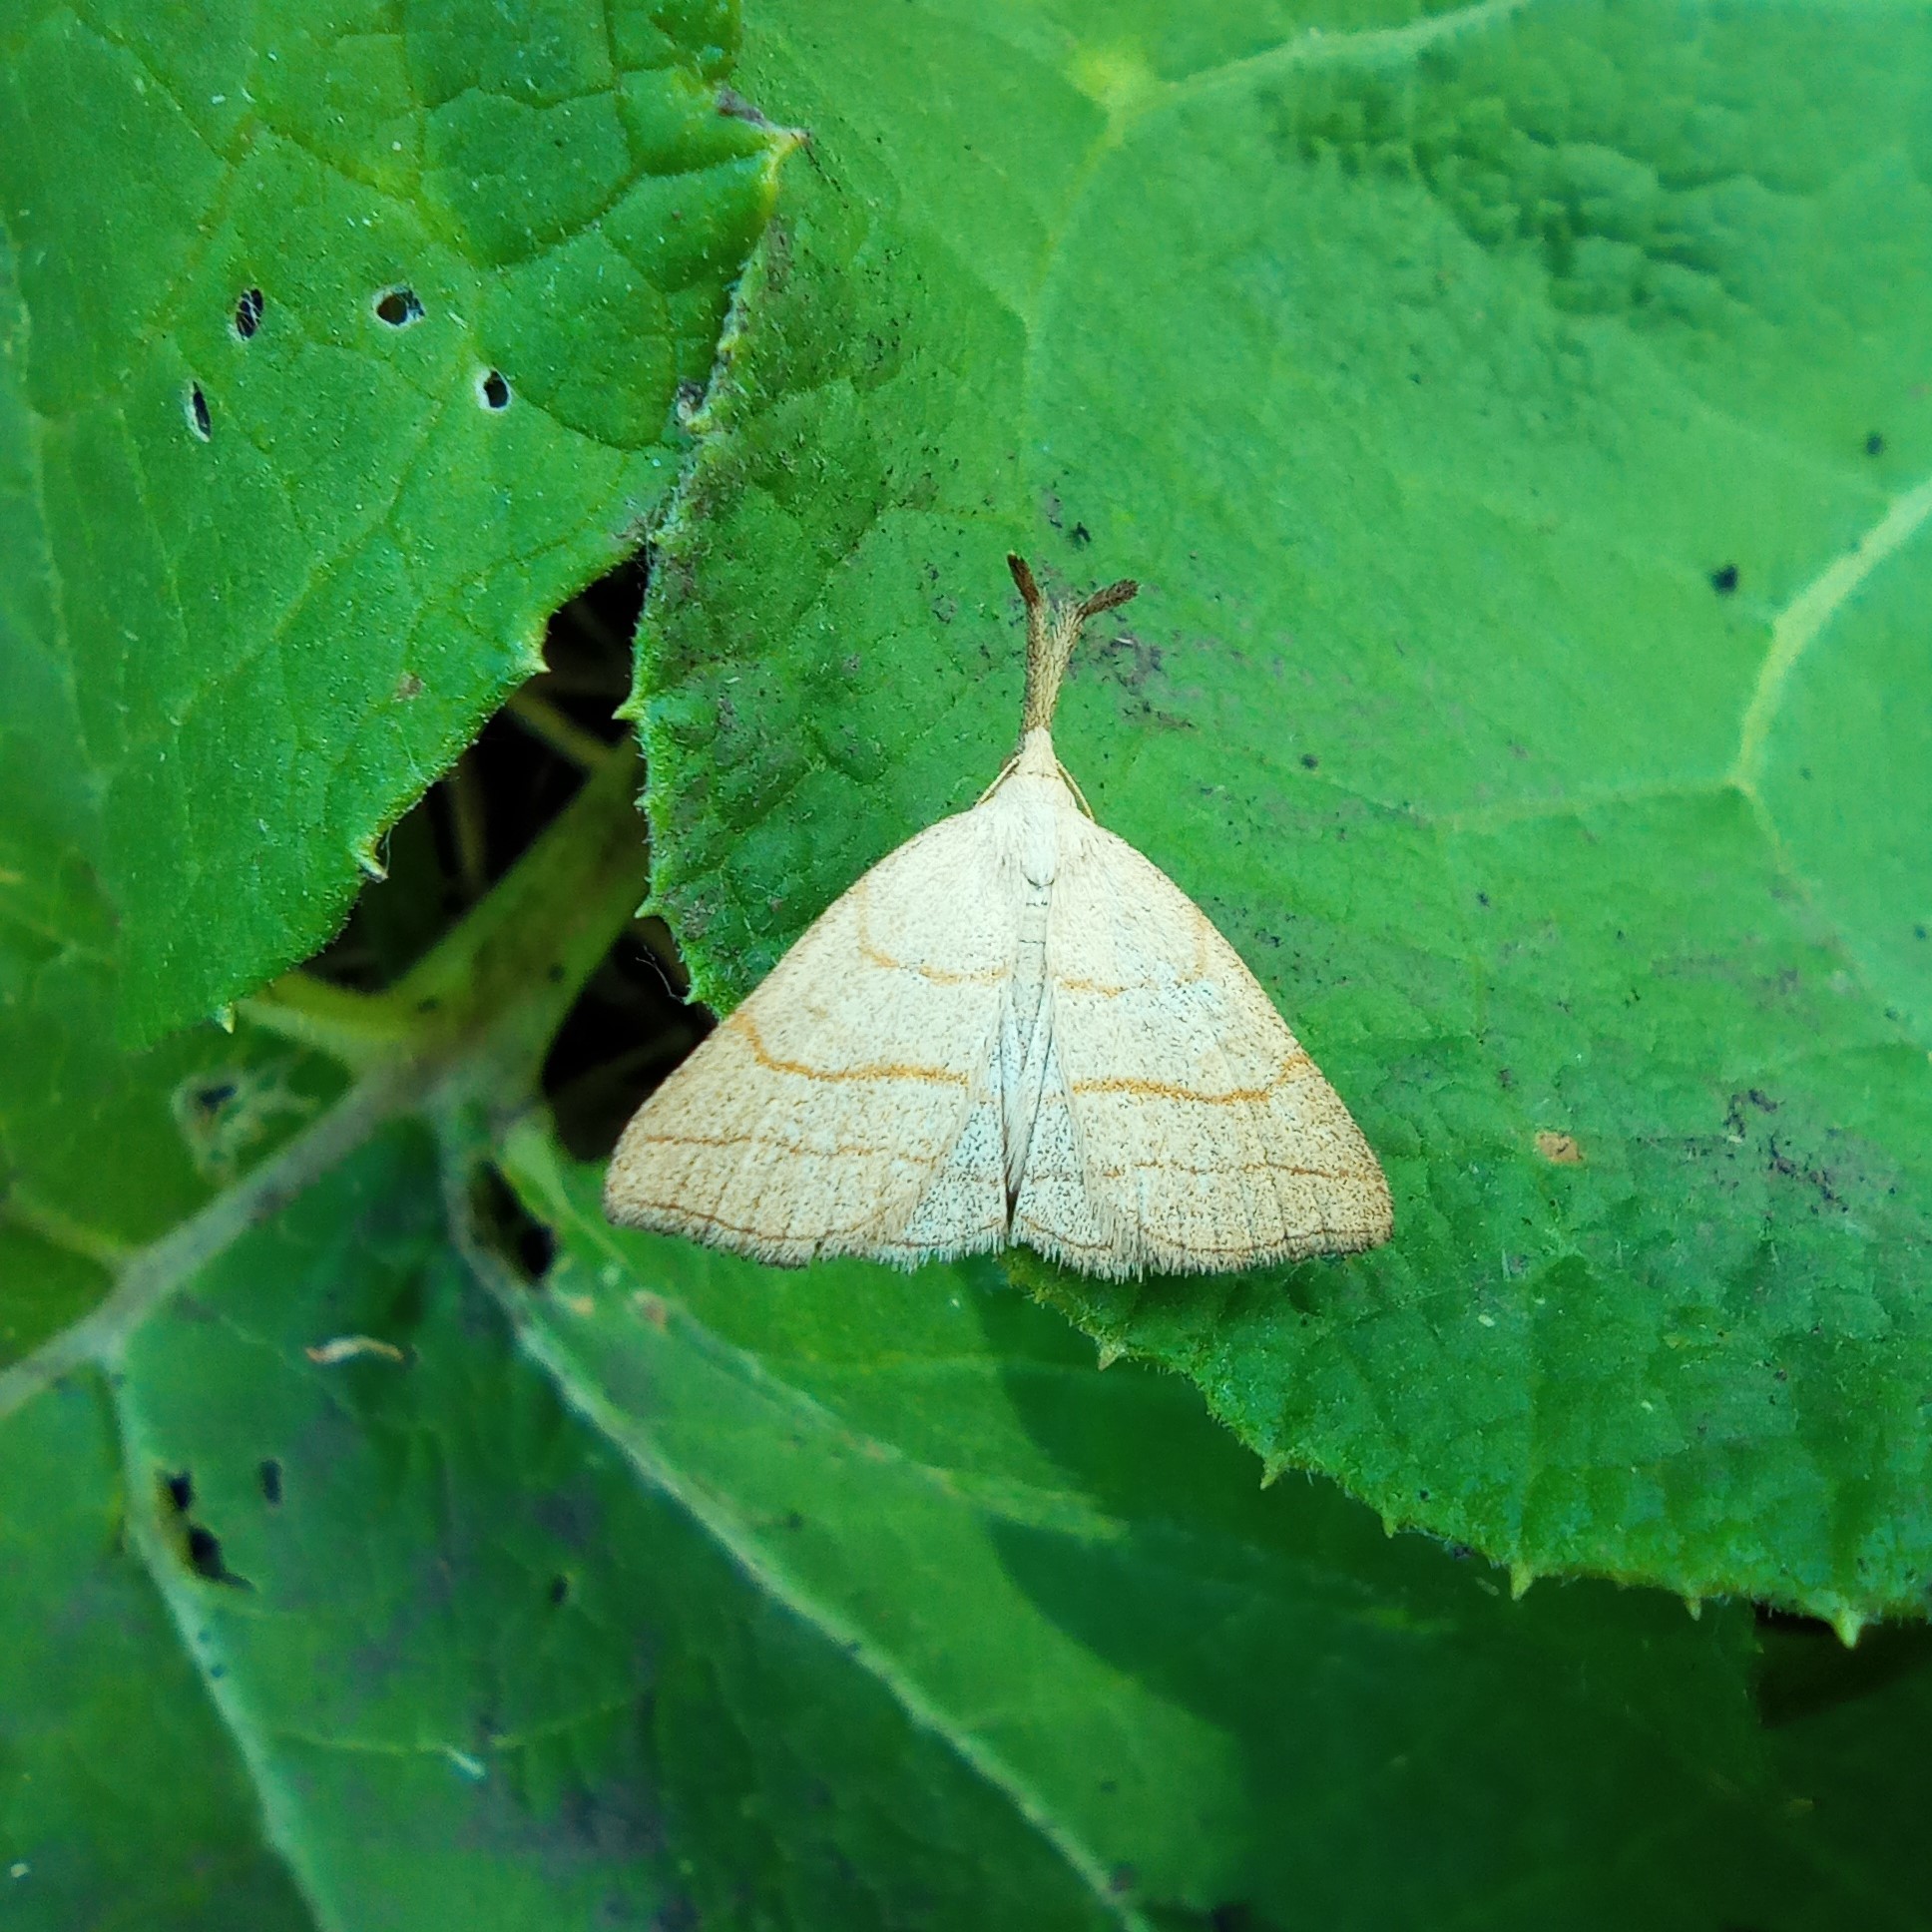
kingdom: Animalia
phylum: Arthropoda
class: Insecta
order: Lepidoptera
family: Erebidae
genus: Polypogon
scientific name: Polypogon tentacularia
